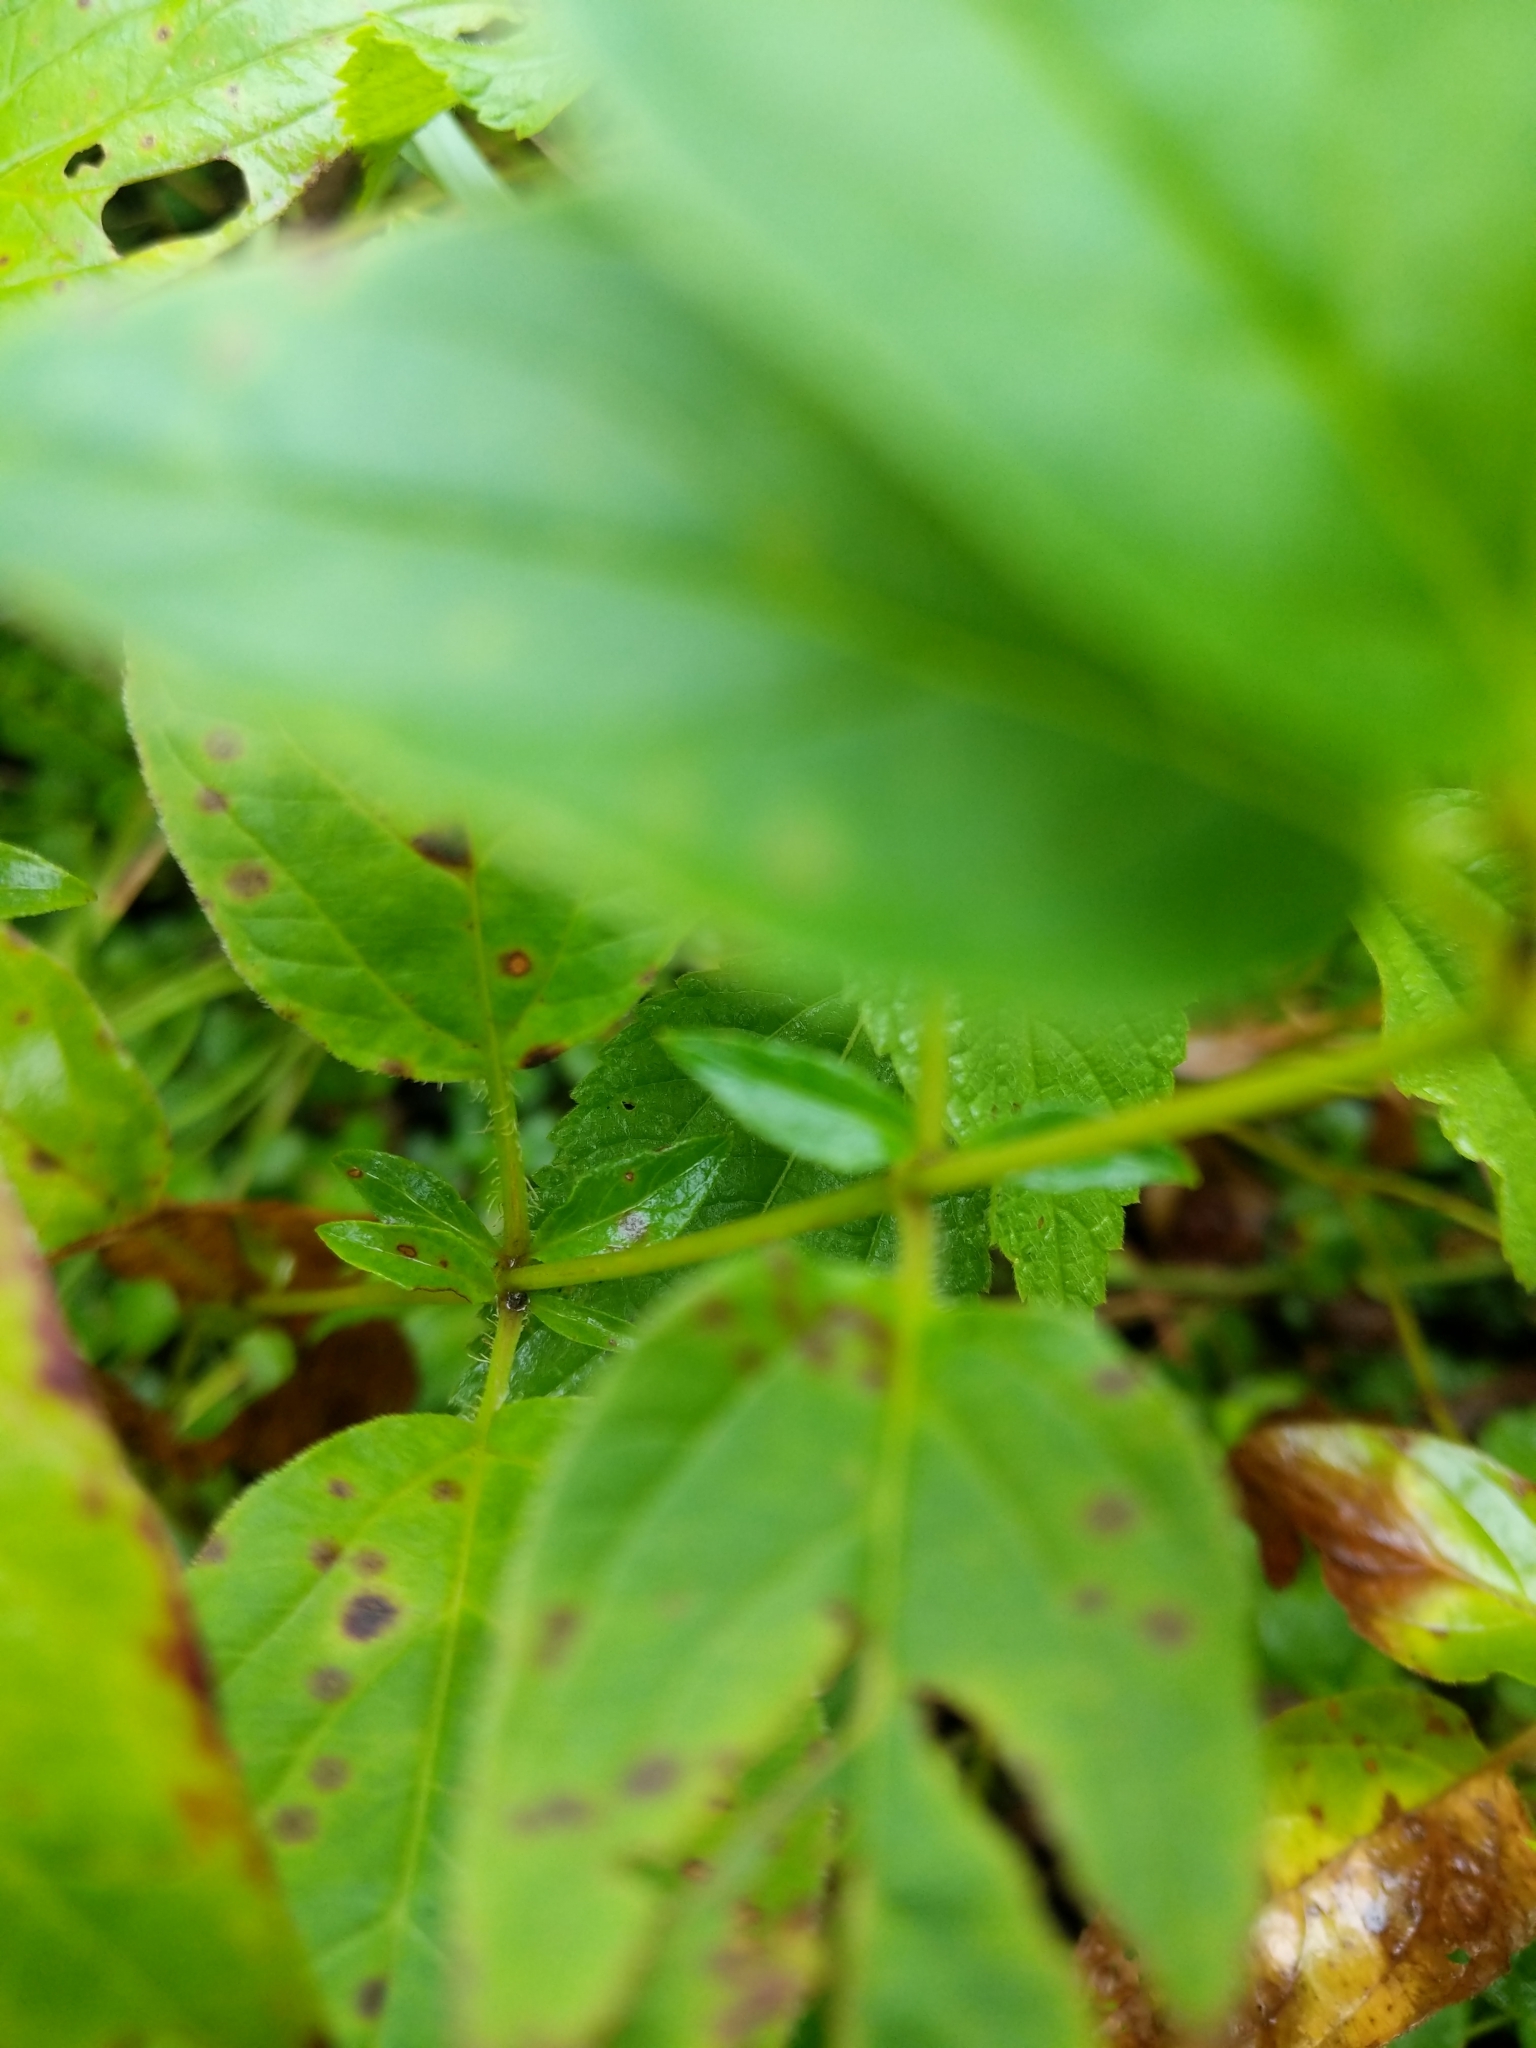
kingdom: Plantae
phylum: Tracheophyta
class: Magnoliopsida
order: Ericales
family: Primulaceae
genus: Lysimachia
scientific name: Lysimachia ciliata
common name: Fringed loosestrife
